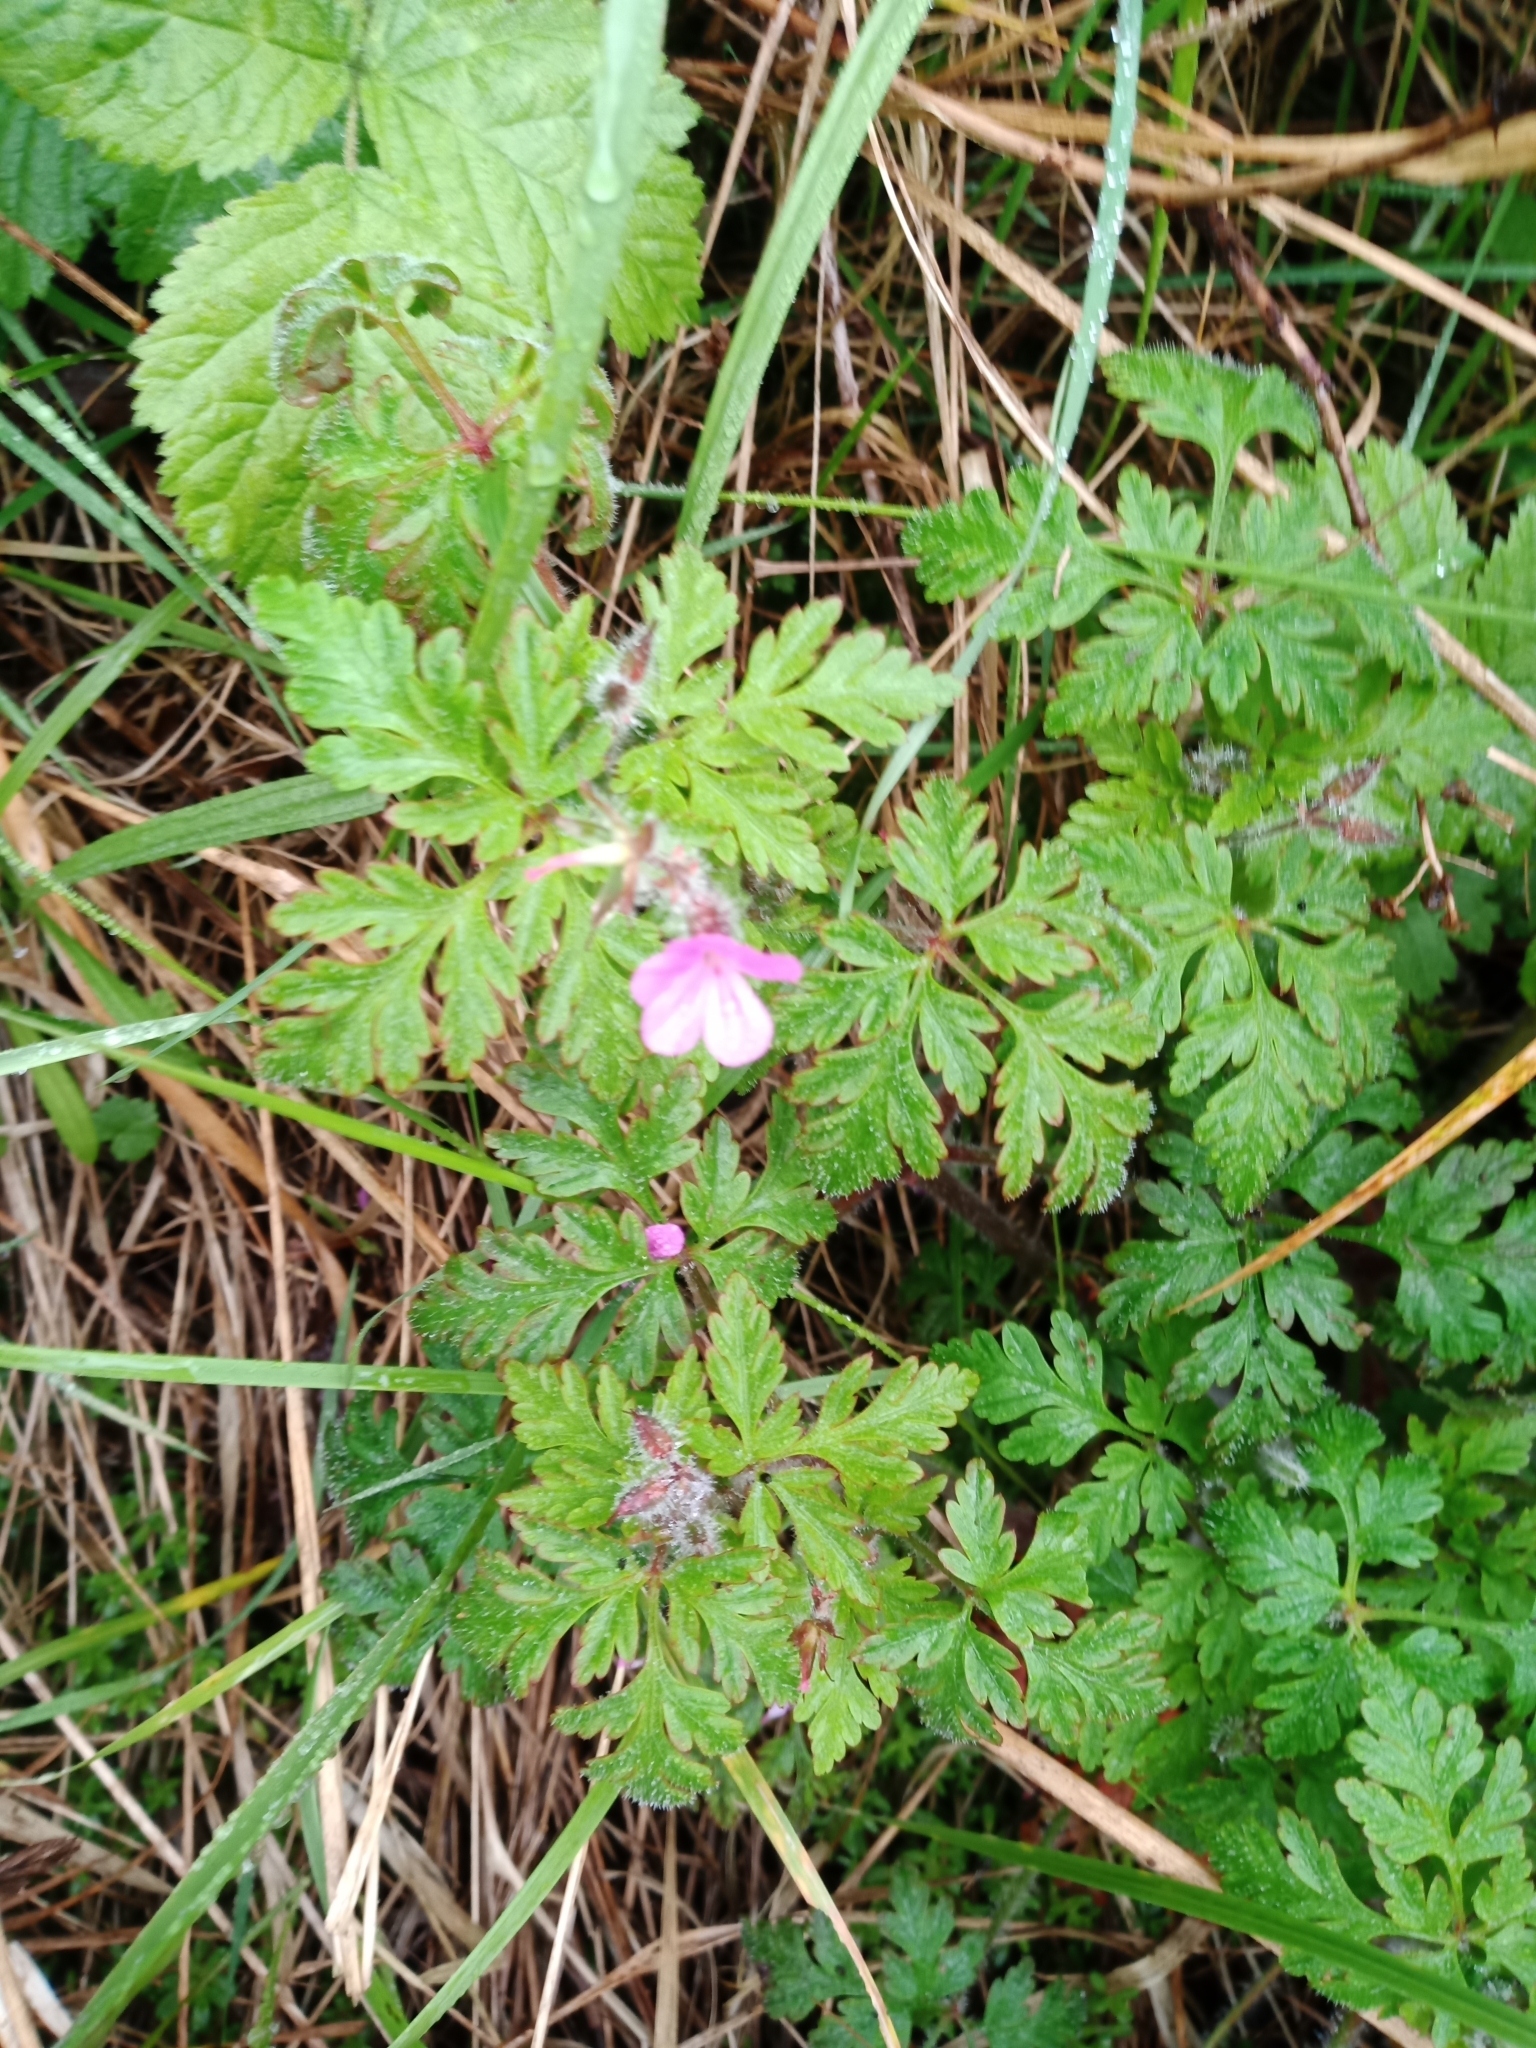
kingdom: Plantae
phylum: Tracheophyta
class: Magnoliopsida
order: Geraniales
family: Geraniaceae
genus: Geranium
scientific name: Geranium robertianum
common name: Herb-robert
